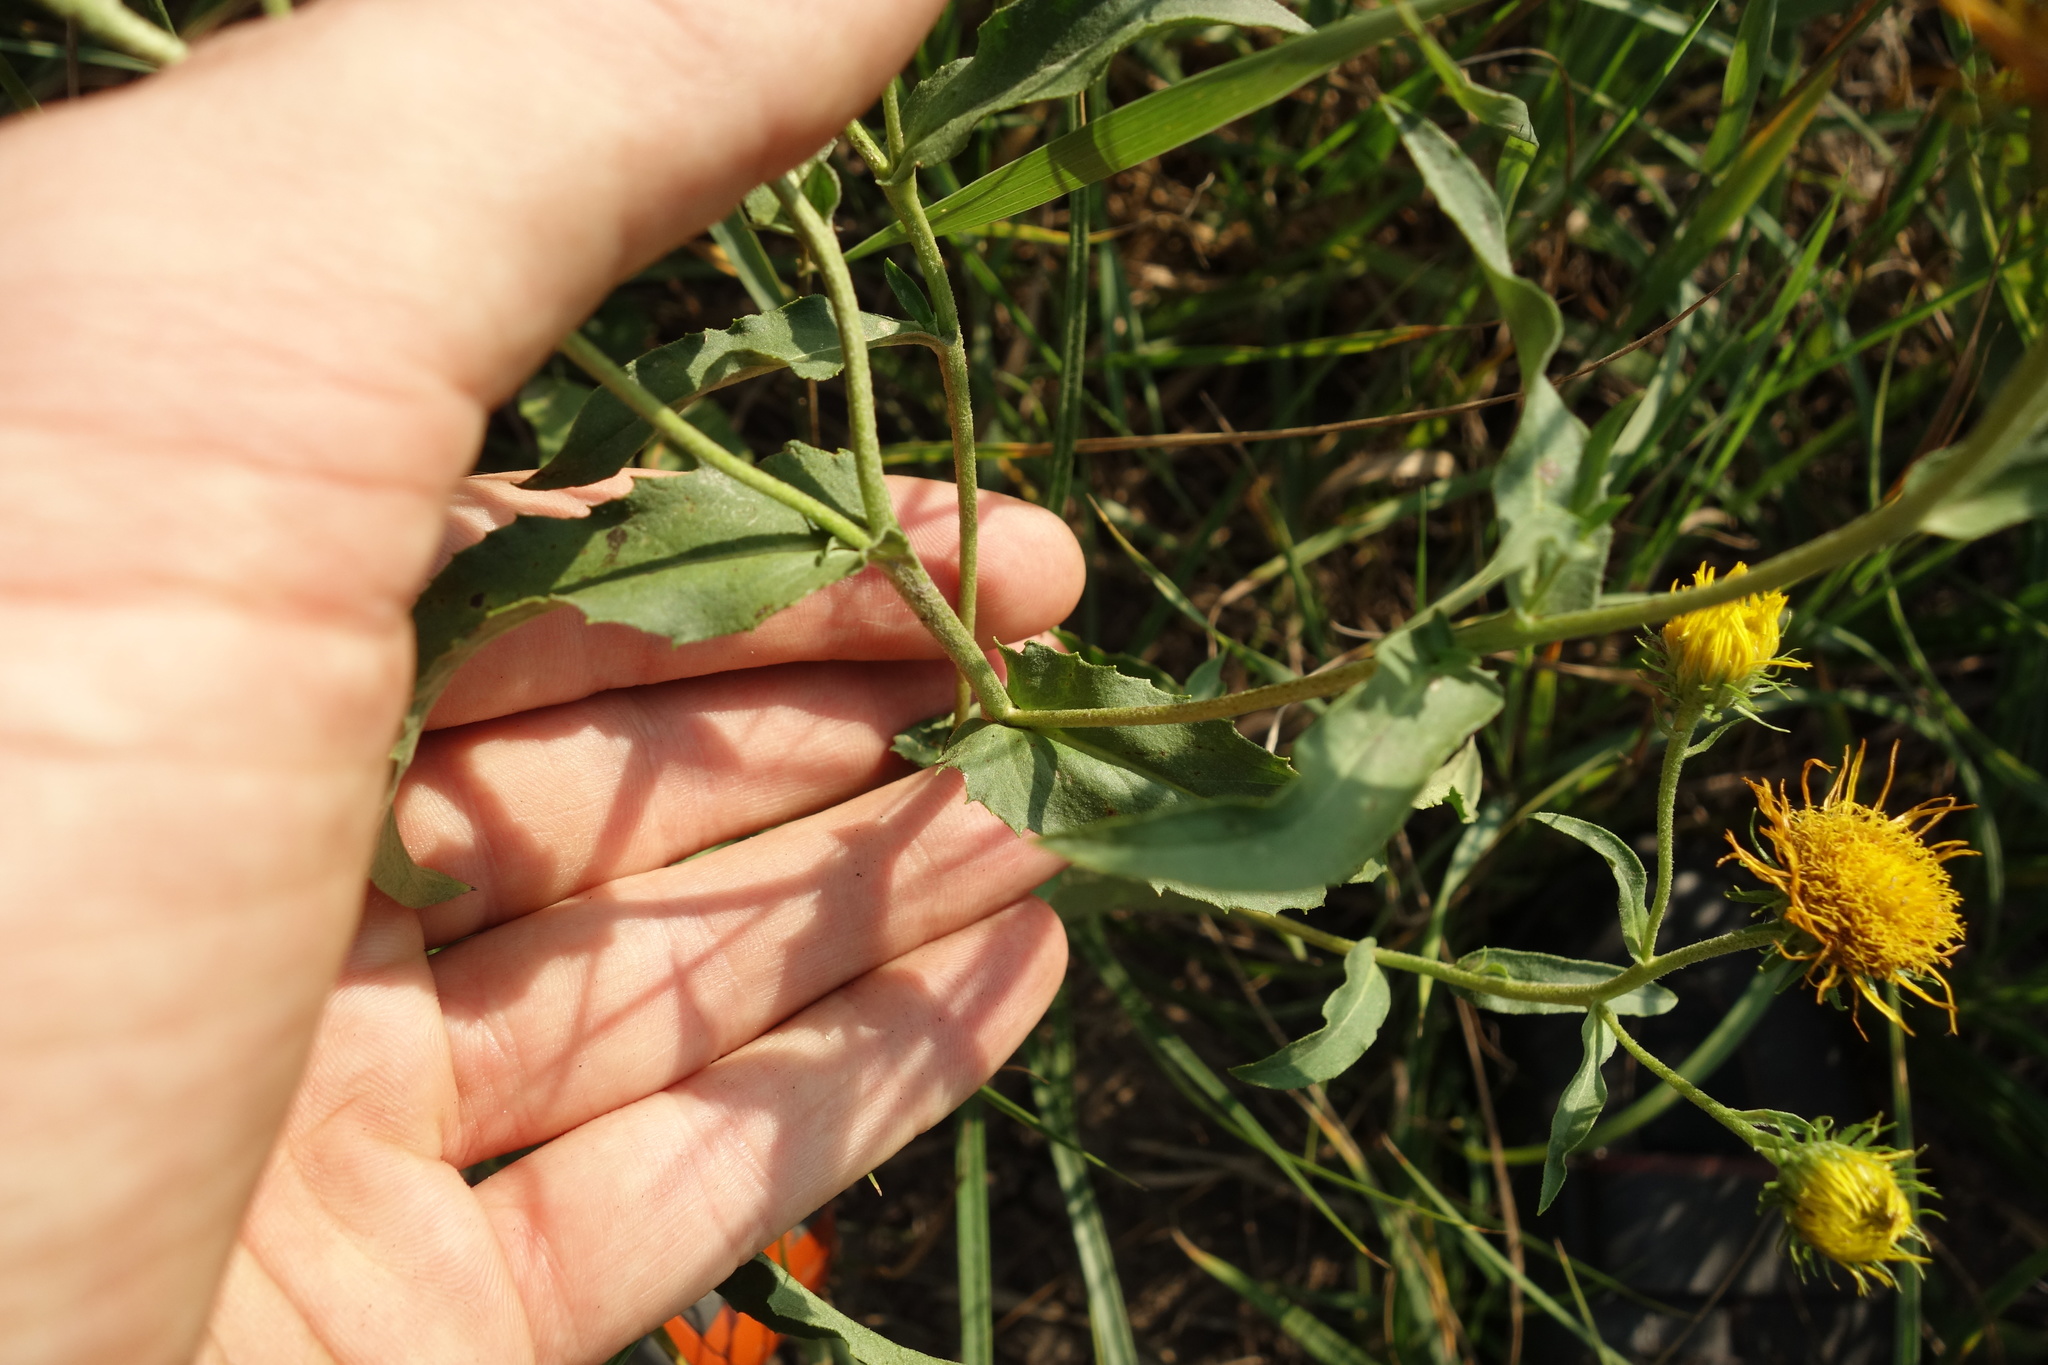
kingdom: Plantae
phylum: Tracheophyta
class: Magnoliopsida
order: Asterales
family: Asteraceae
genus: Pentanema
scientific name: Pentanema britannicum
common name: British elecampane
